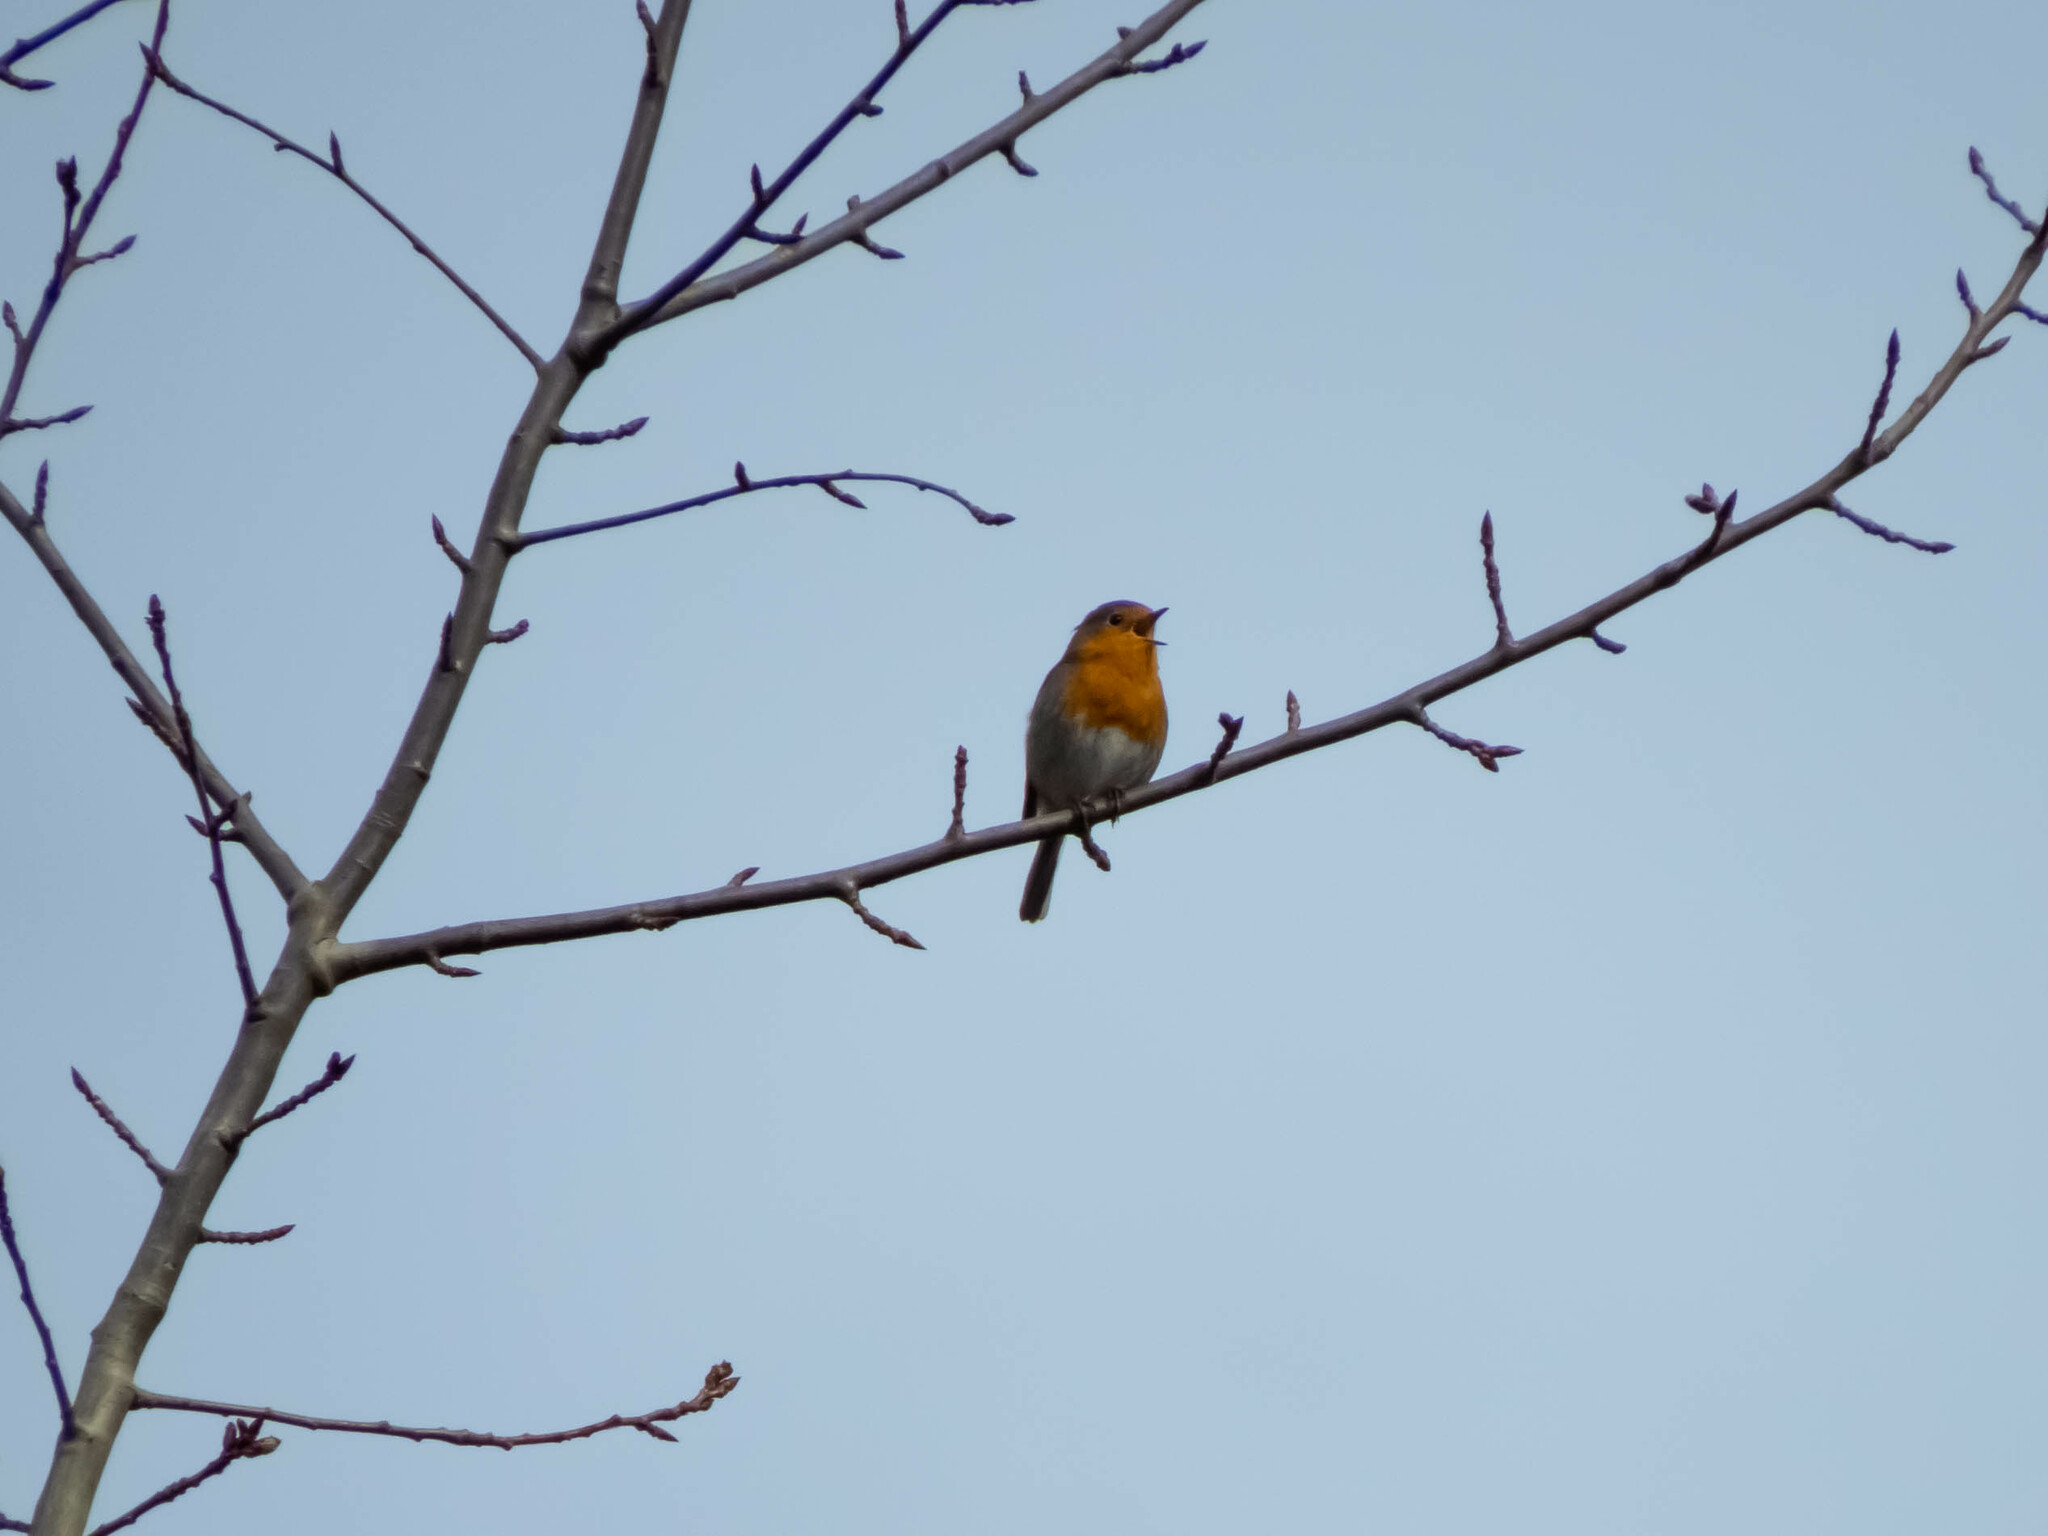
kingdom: Animalia
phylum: Chordata
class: Aves
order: Passeriformes
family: Muscicapidae
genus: Erithacus
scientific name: Erithacus rubecula
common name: European robin
